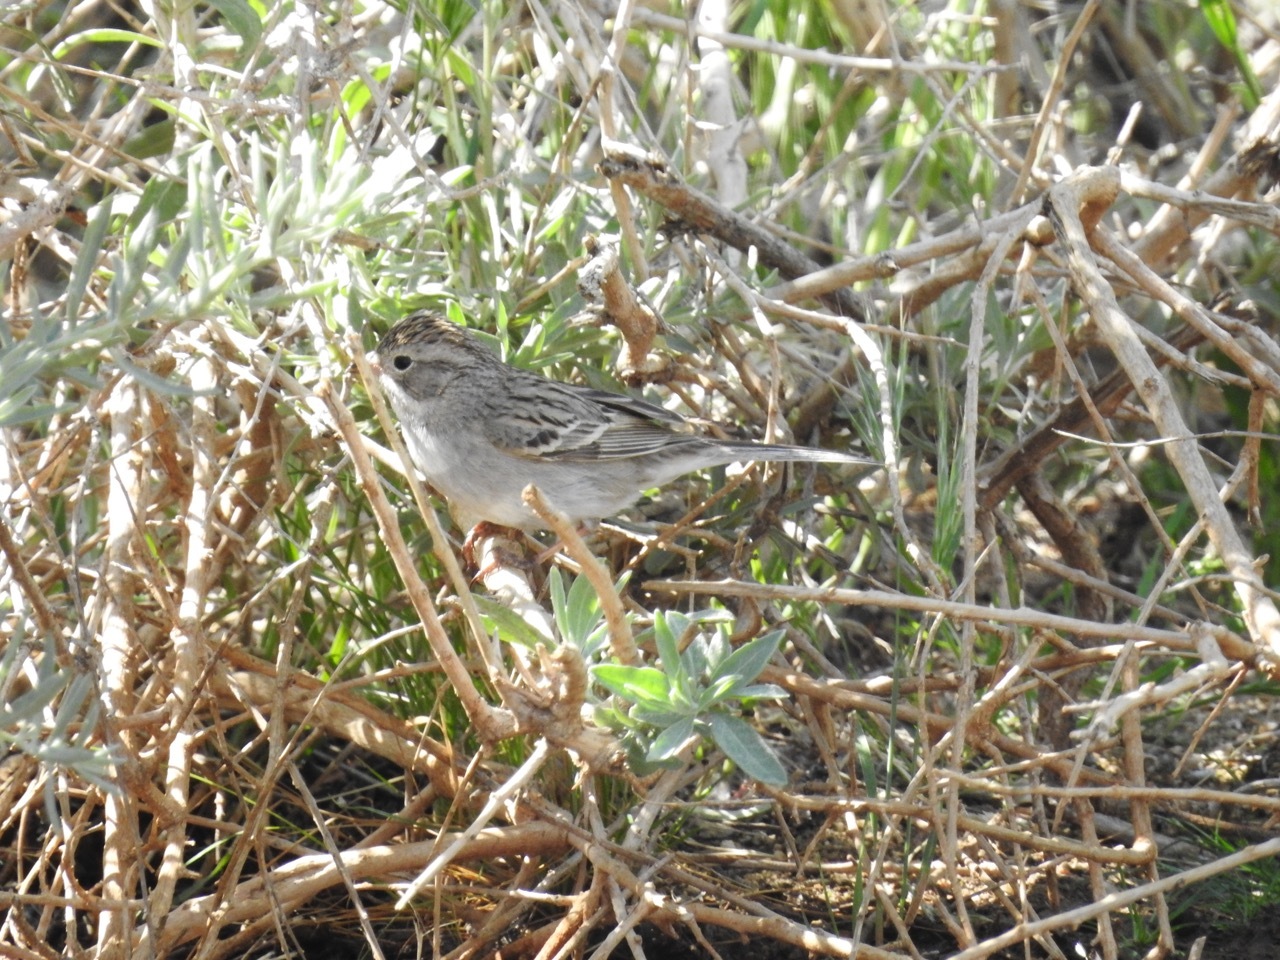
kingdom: Animalia
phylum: Chordata
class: Aves
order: Passeriformes
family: Passerellidae
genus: Spizella
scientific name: Spizella breweri
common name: Brewer's sparrow
